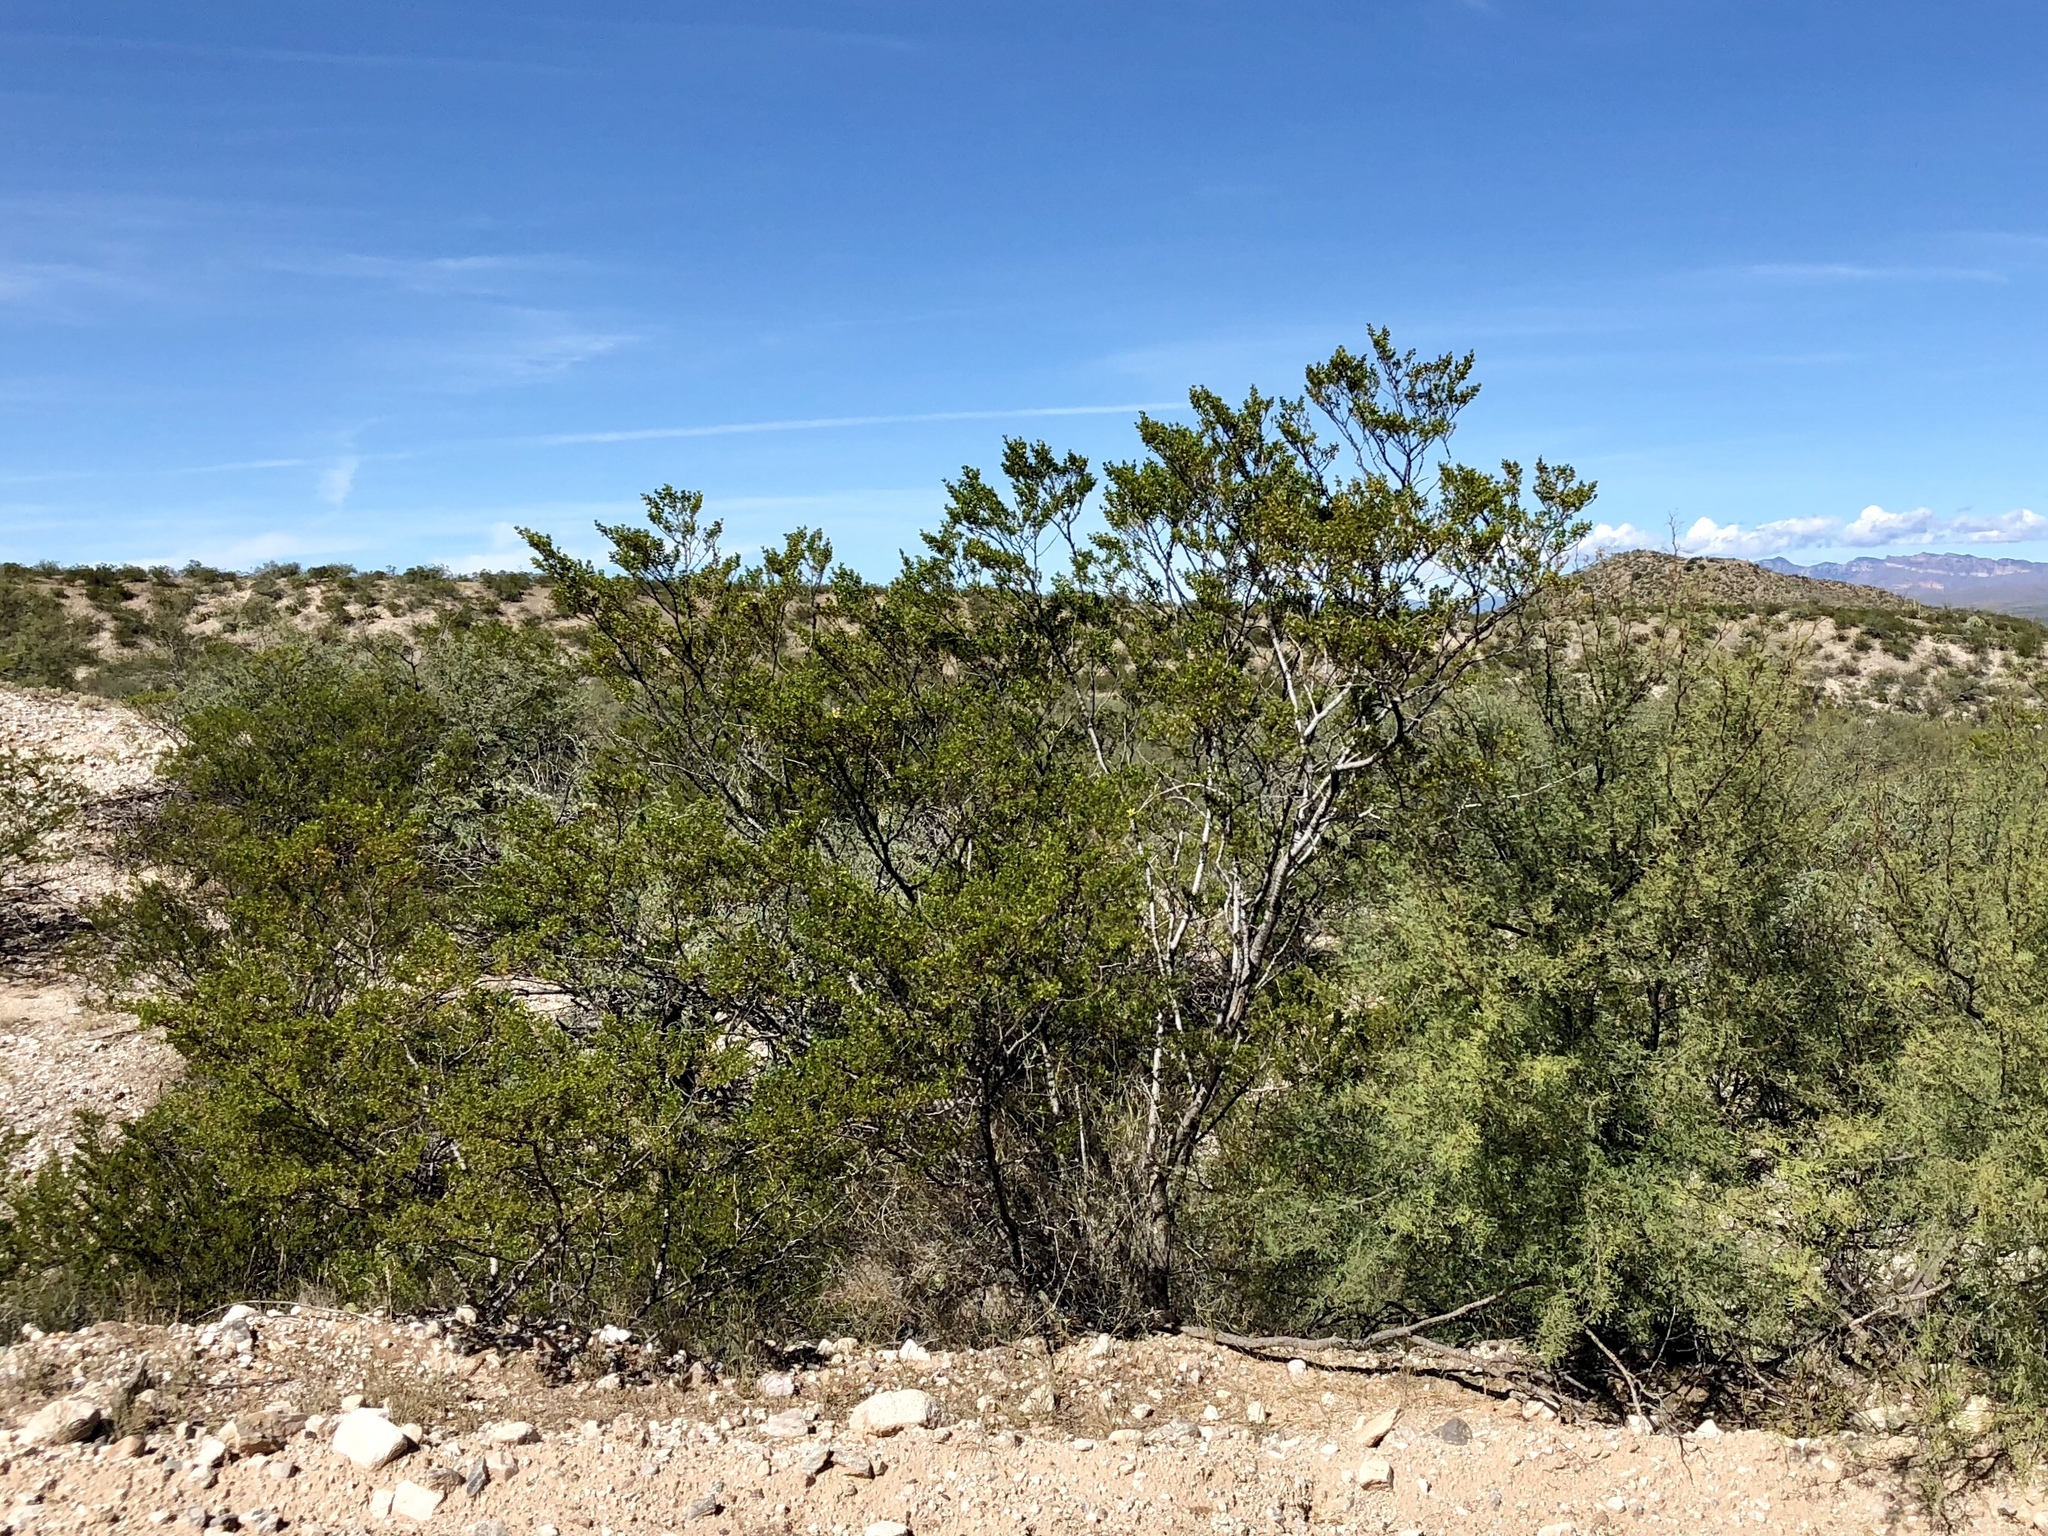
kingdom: Plantae
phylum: Tracheophyta
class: Magnoliopsida
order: Zygophyllales
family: Zygophyllaceae
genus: Larrea
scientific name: Larrea tridentata
